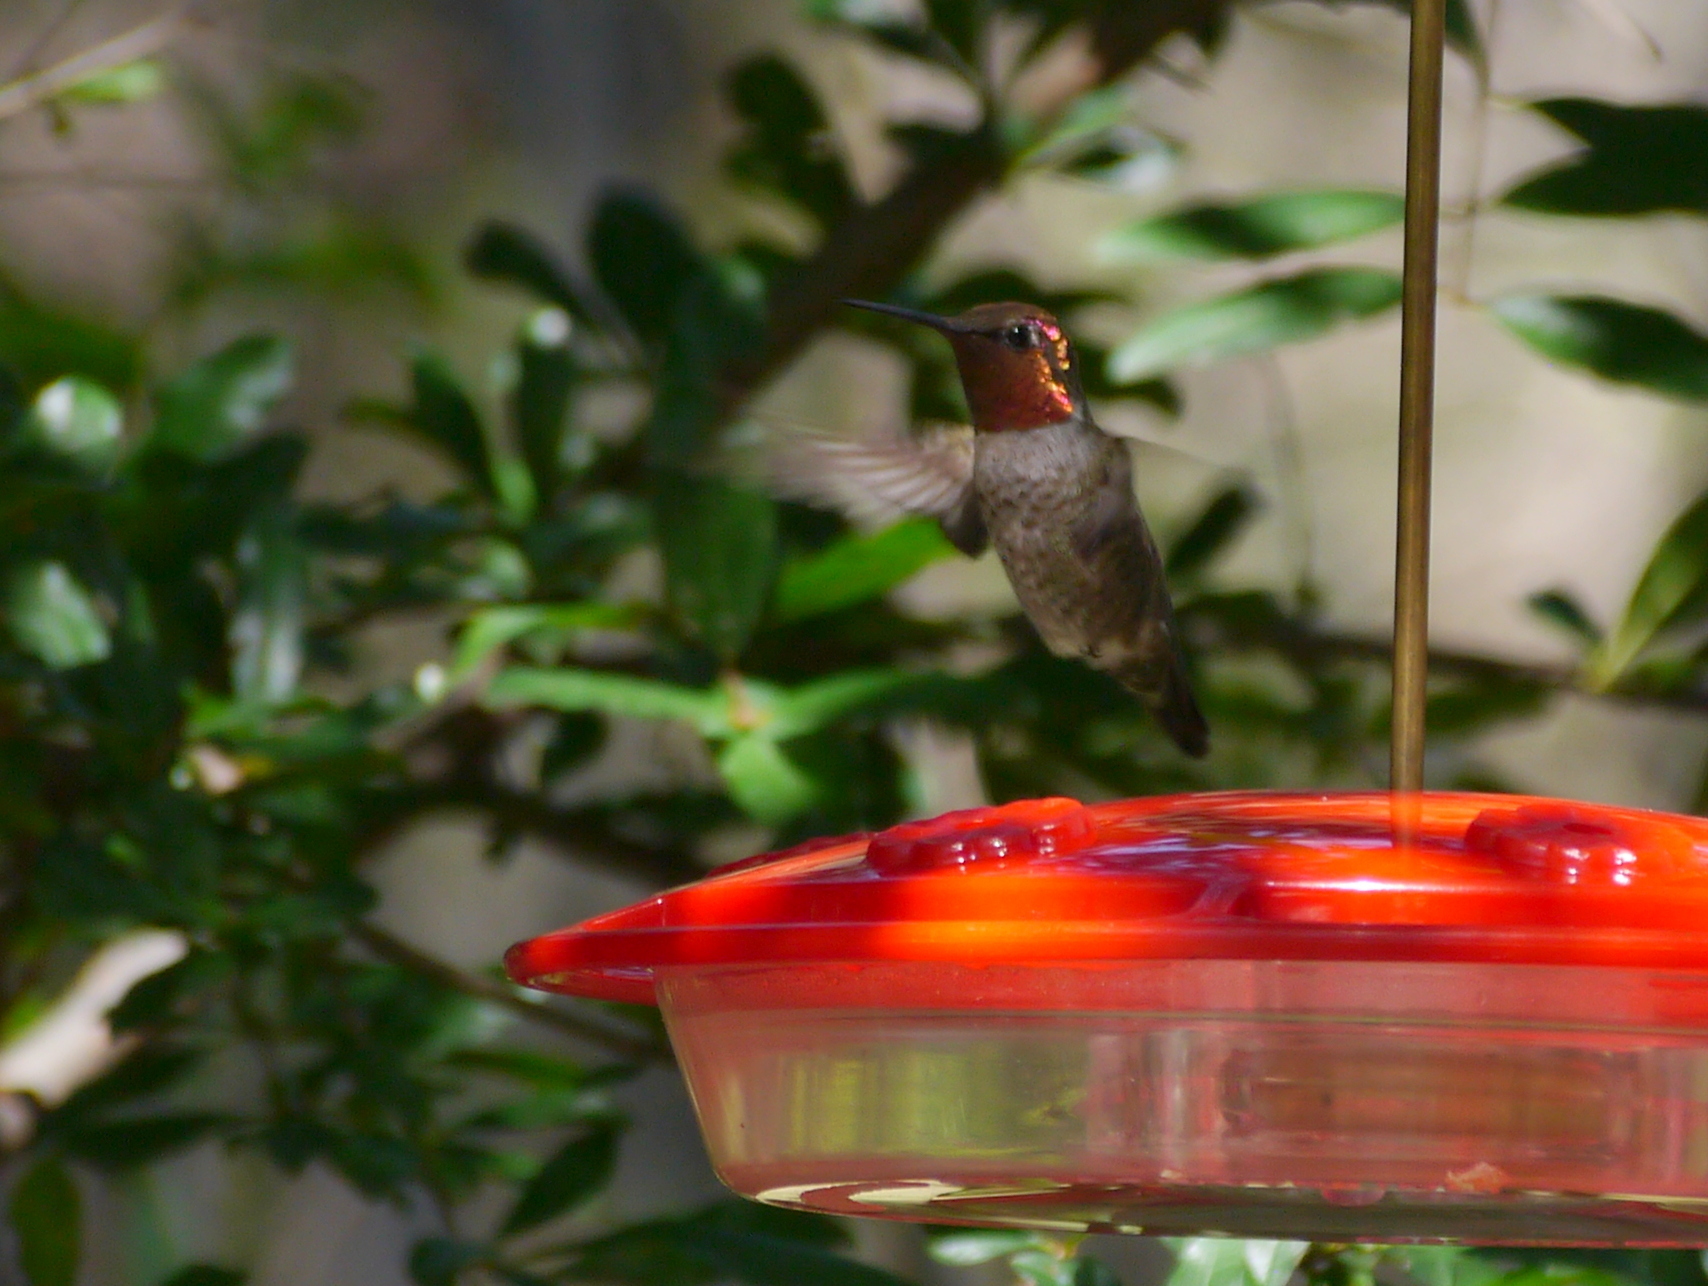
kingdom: Animalia
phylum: Chordata
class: Aves
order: Apodiformes
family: Trochilidae
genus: Calypte
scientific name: Calypte anna
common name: Anna's hummingbird
